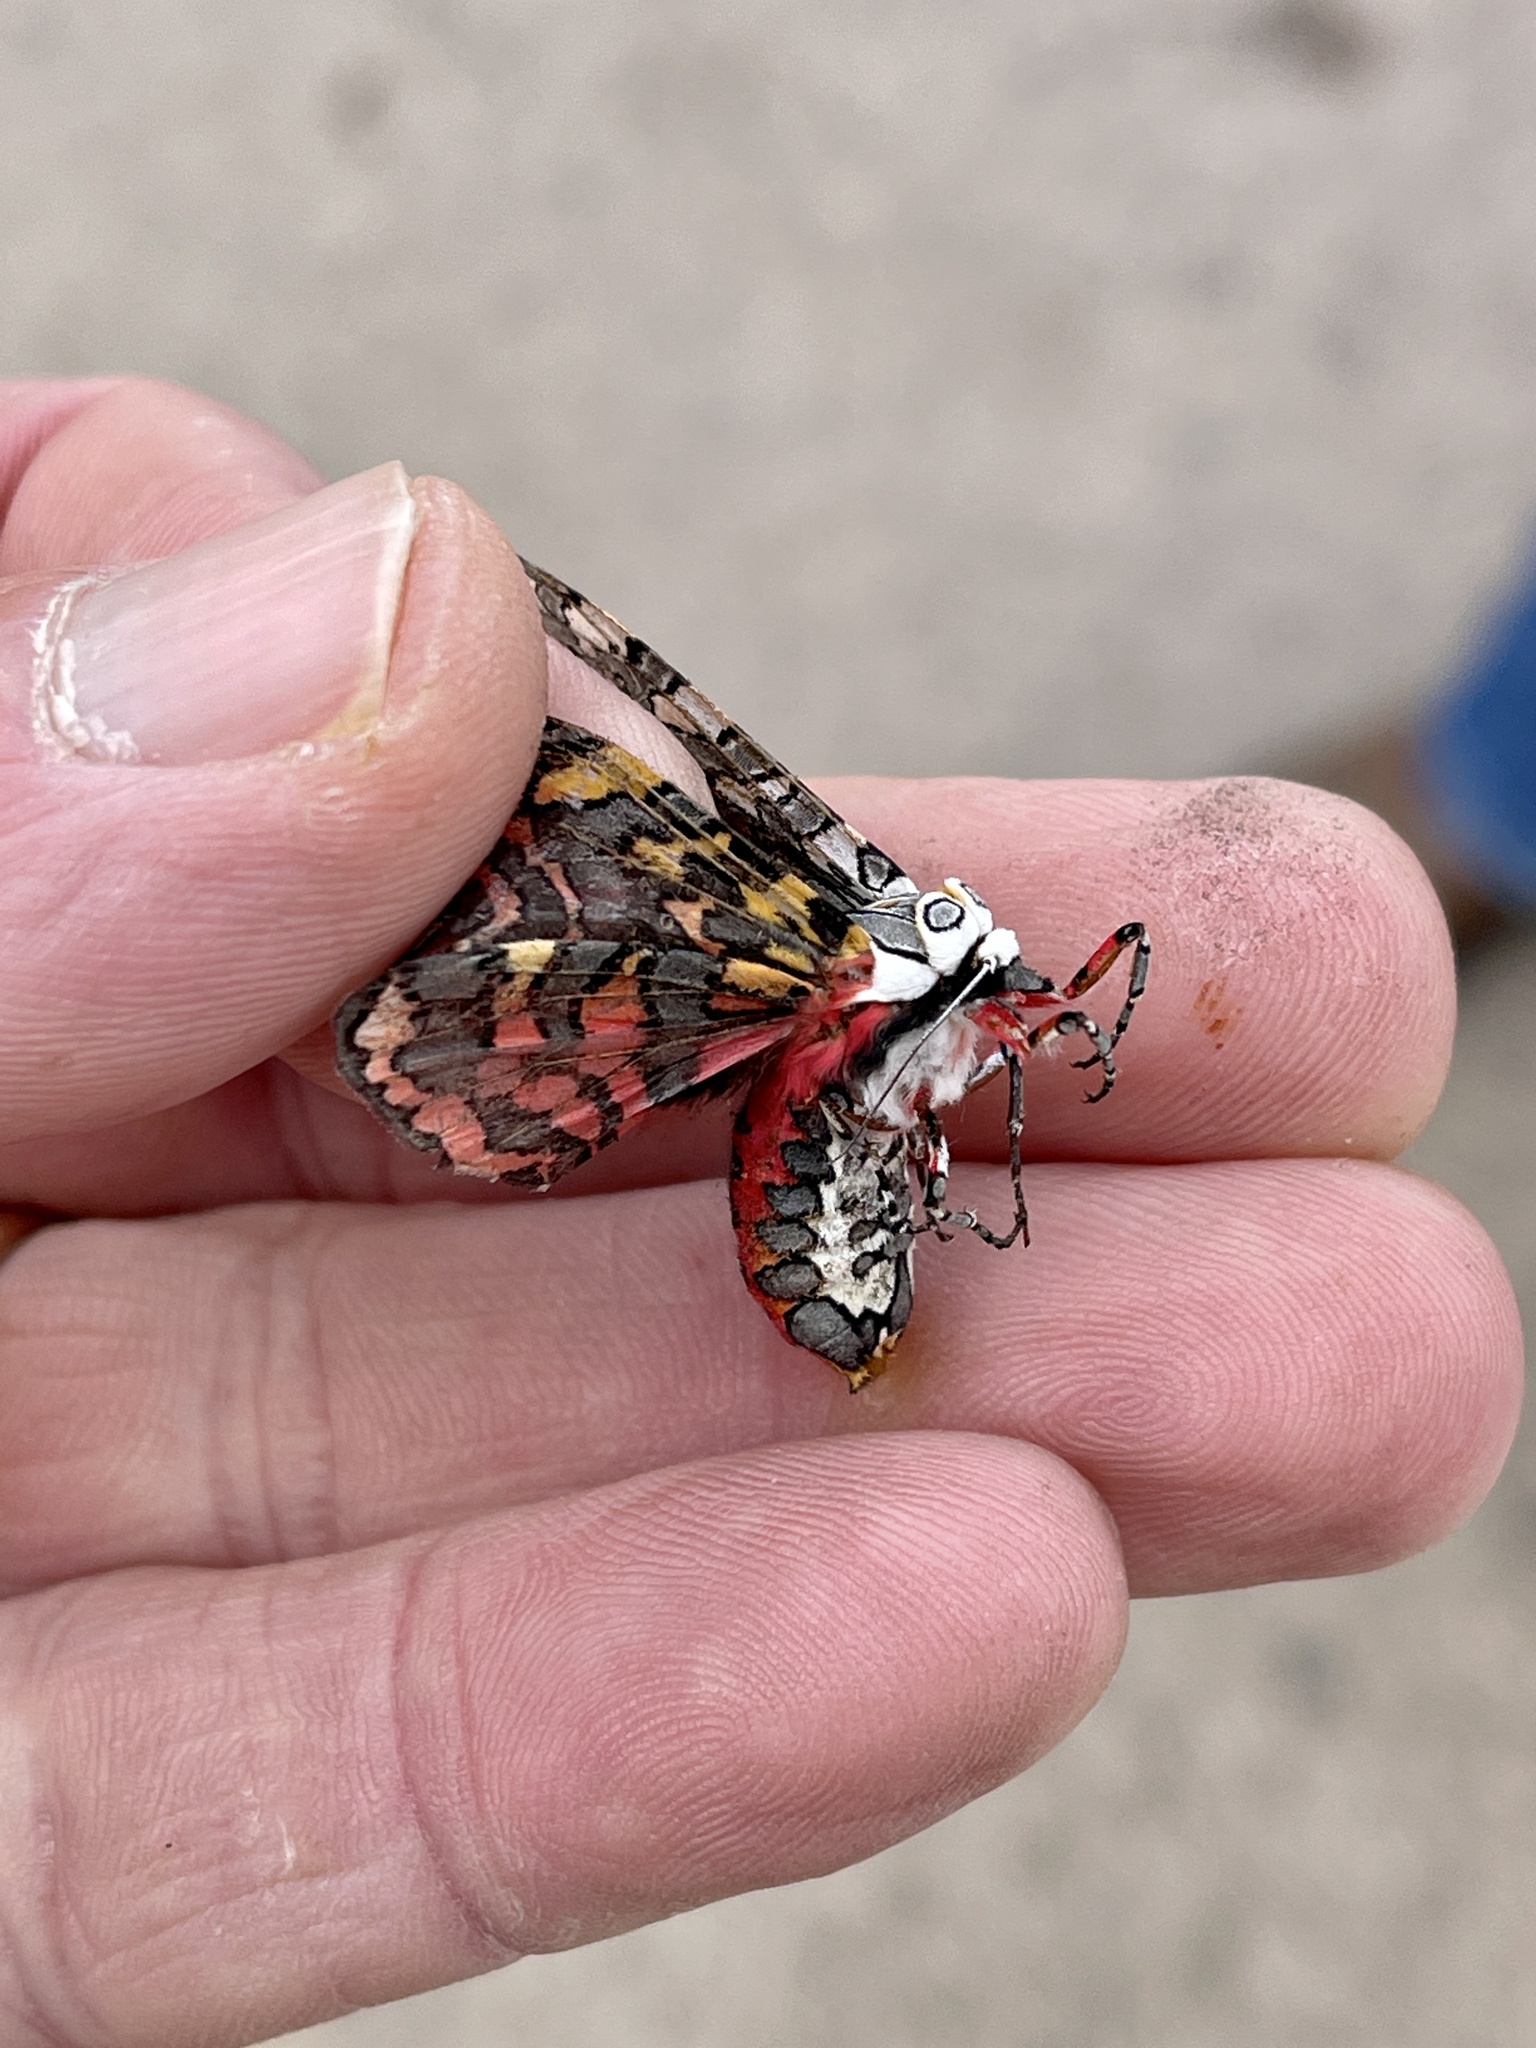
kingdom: Animalia
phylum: Arthropoda
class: Insecta
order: Lepidoptera
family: Erebidae
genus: Arachnis
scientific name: Arachnis picta
